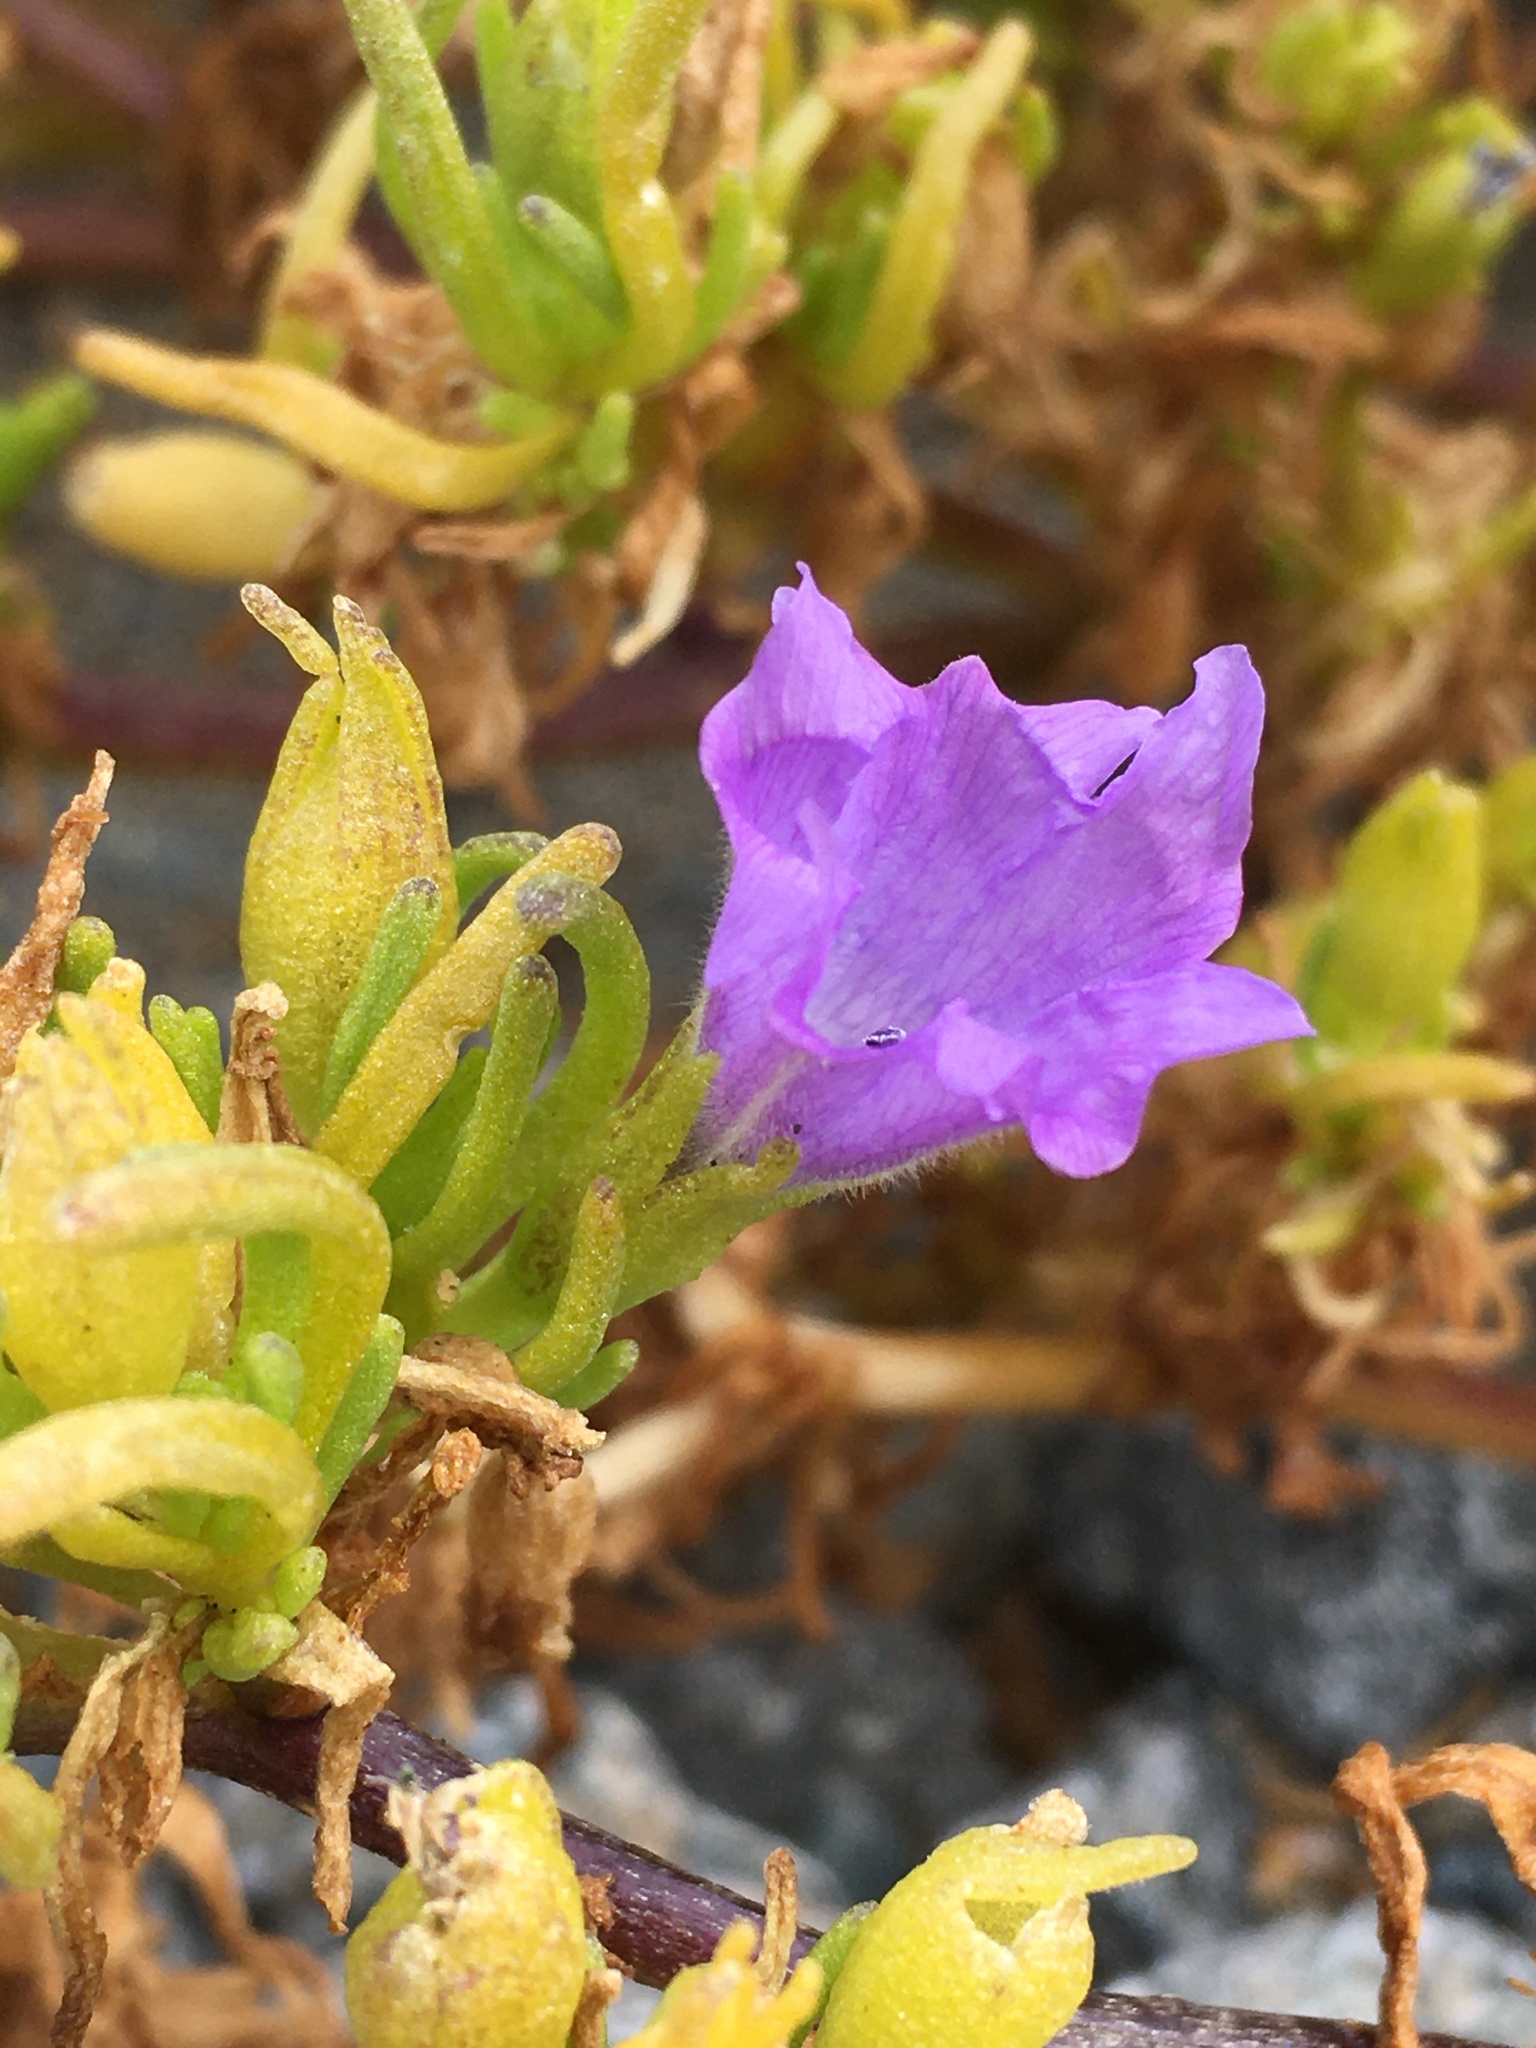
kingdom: Plantae
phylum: Tracheophyta
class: Magnoliopsida
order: Solanales
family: Solanaceae
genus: Nolana
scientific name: Nolana linearifolia
